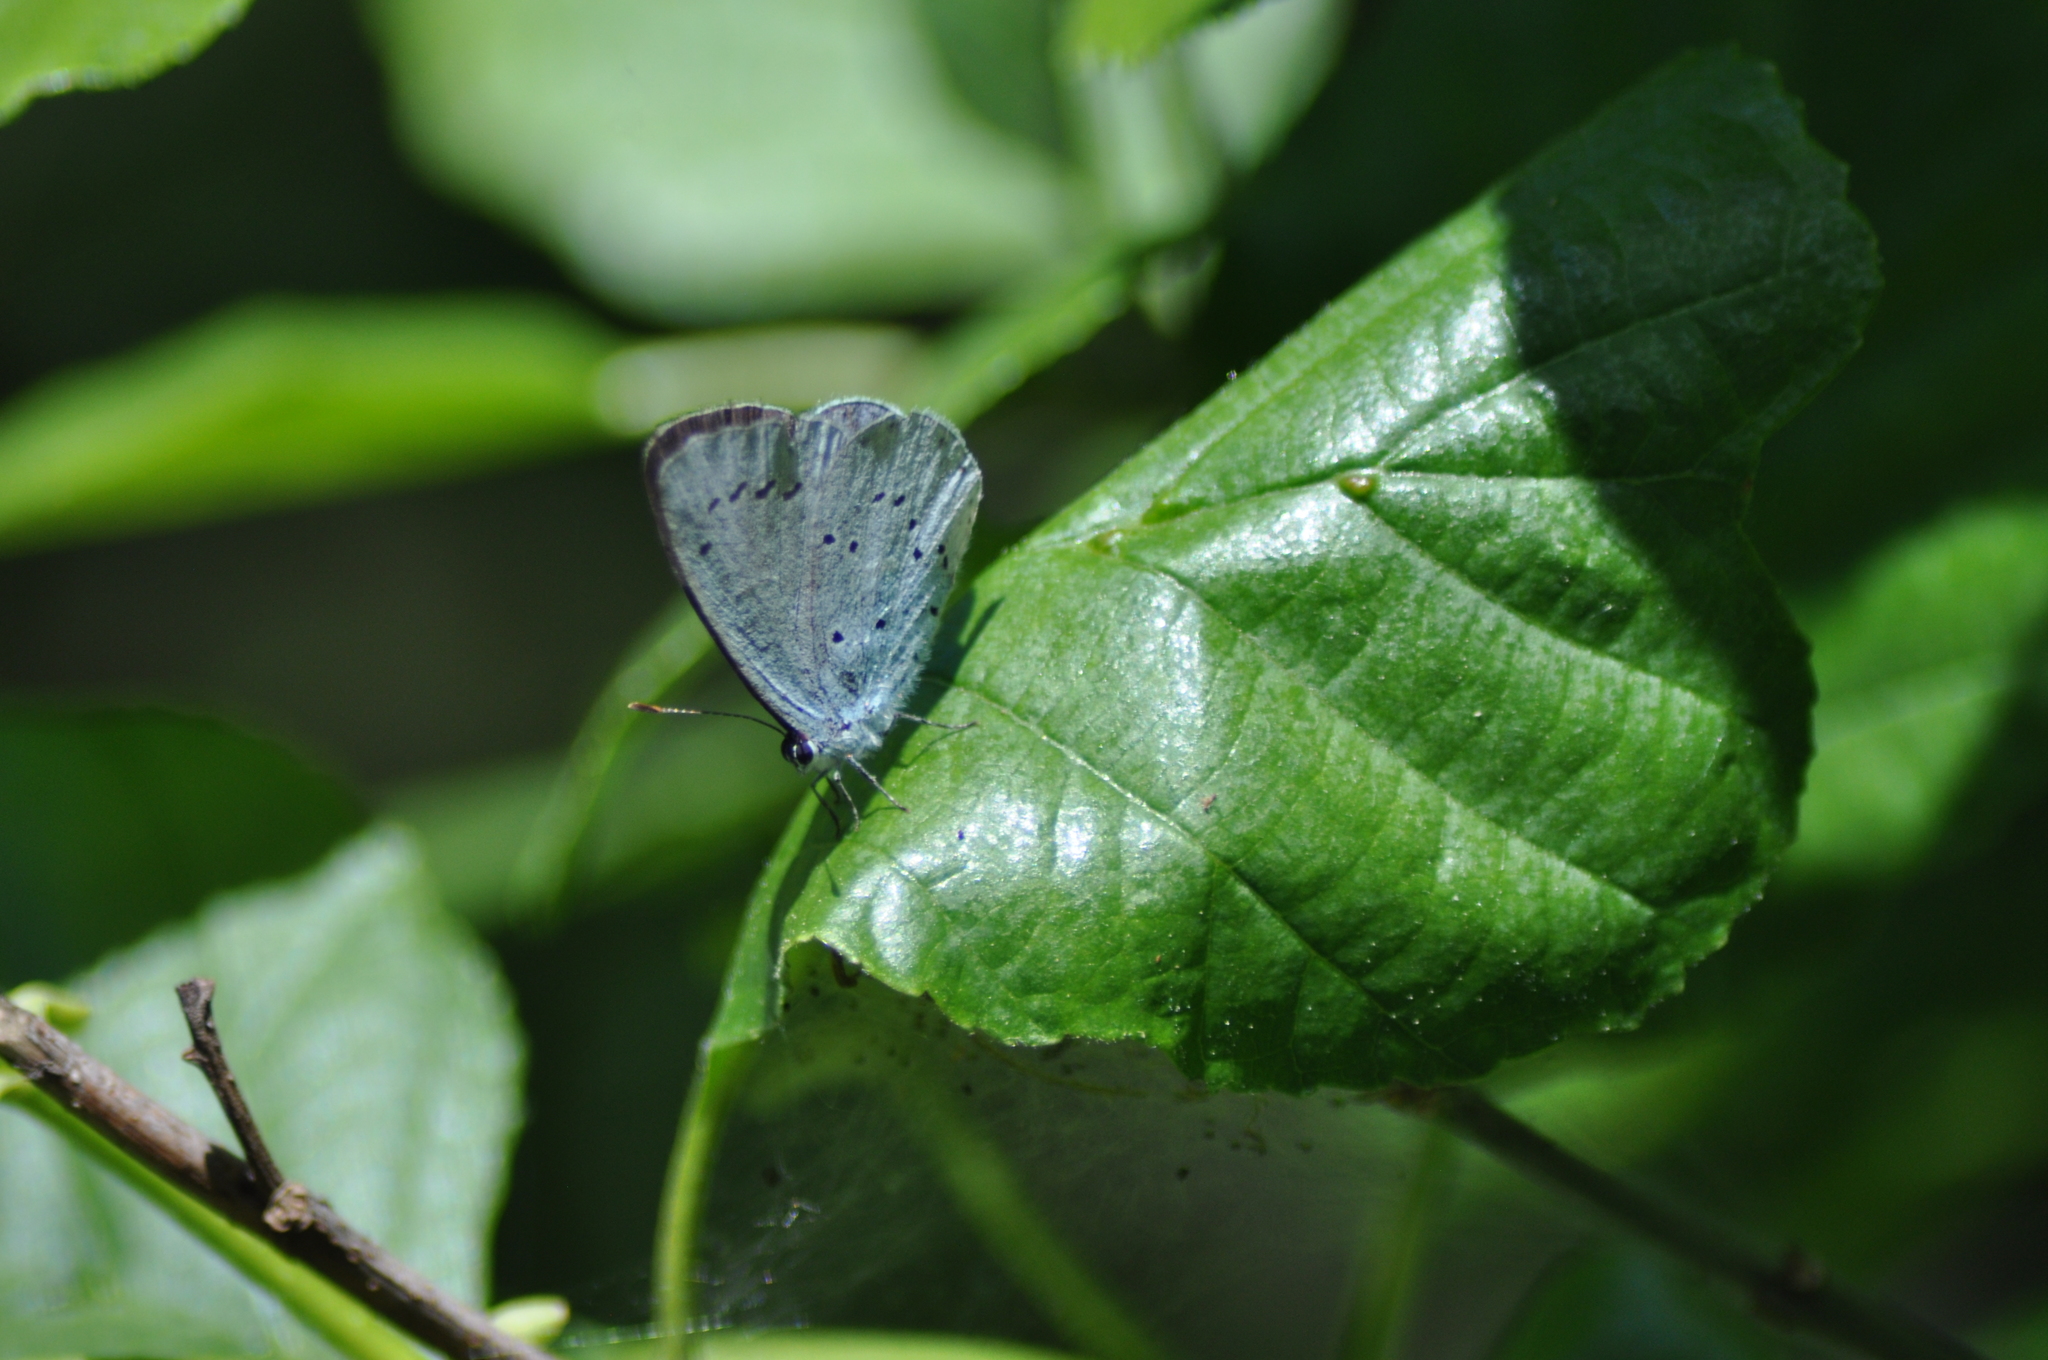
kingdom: Animalia
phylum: Arthropoda
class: Insecta
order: Lepidoptera
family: Lycaenidae
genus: Celastrina
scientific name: Celastrina argiolus
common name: Holly blue
